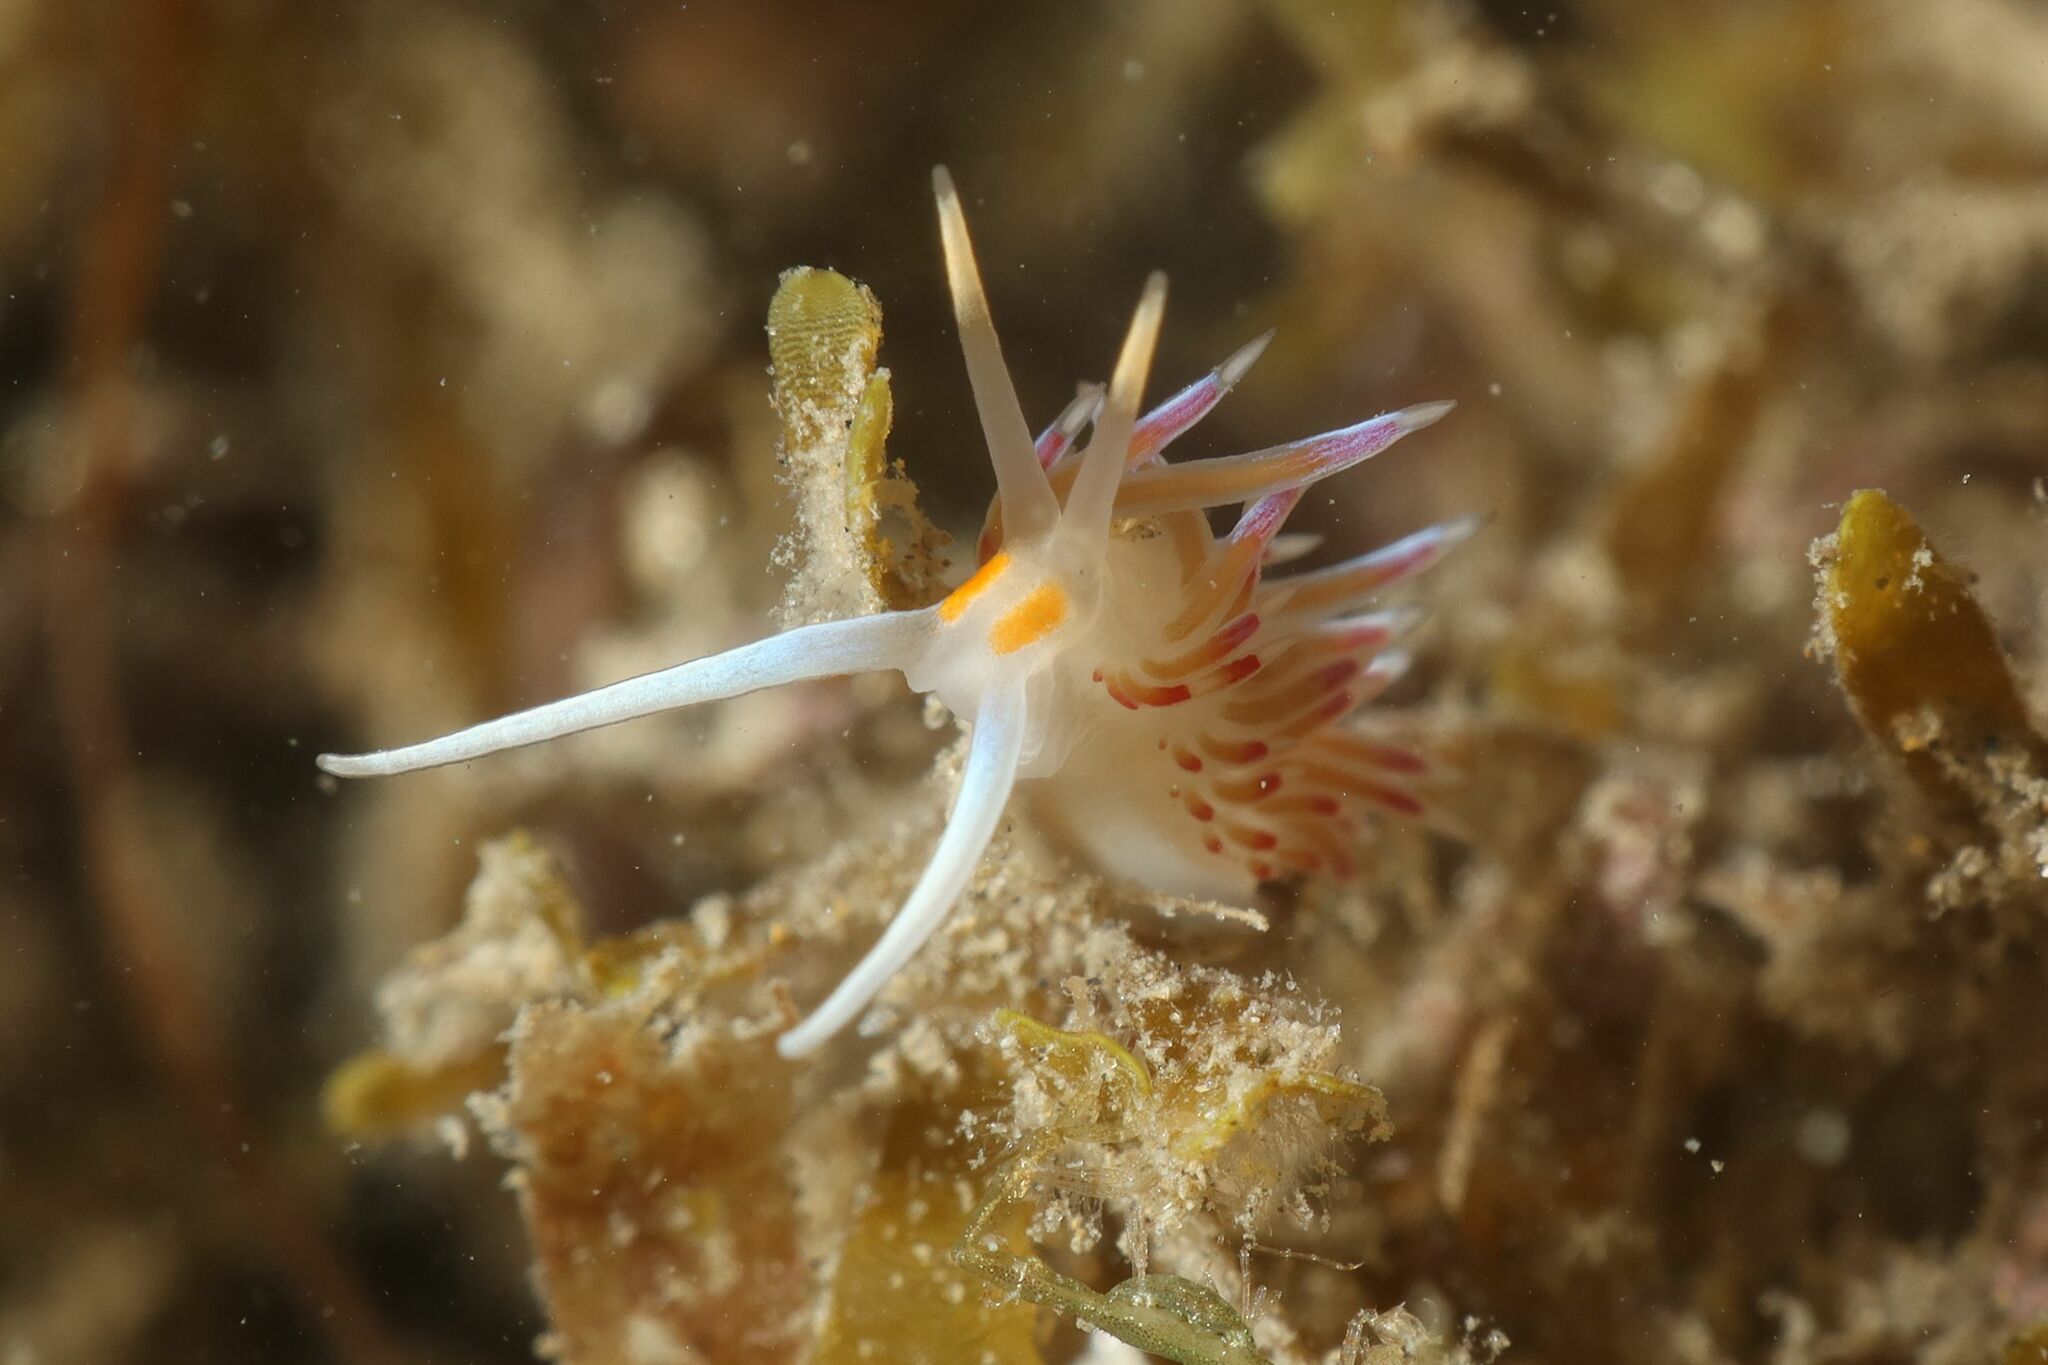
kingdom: Animalia
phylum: Mollusca
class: Gastropoda
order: Nudibranchia
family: Facelinidae
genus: Cratena
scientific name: Cratena peregrina
